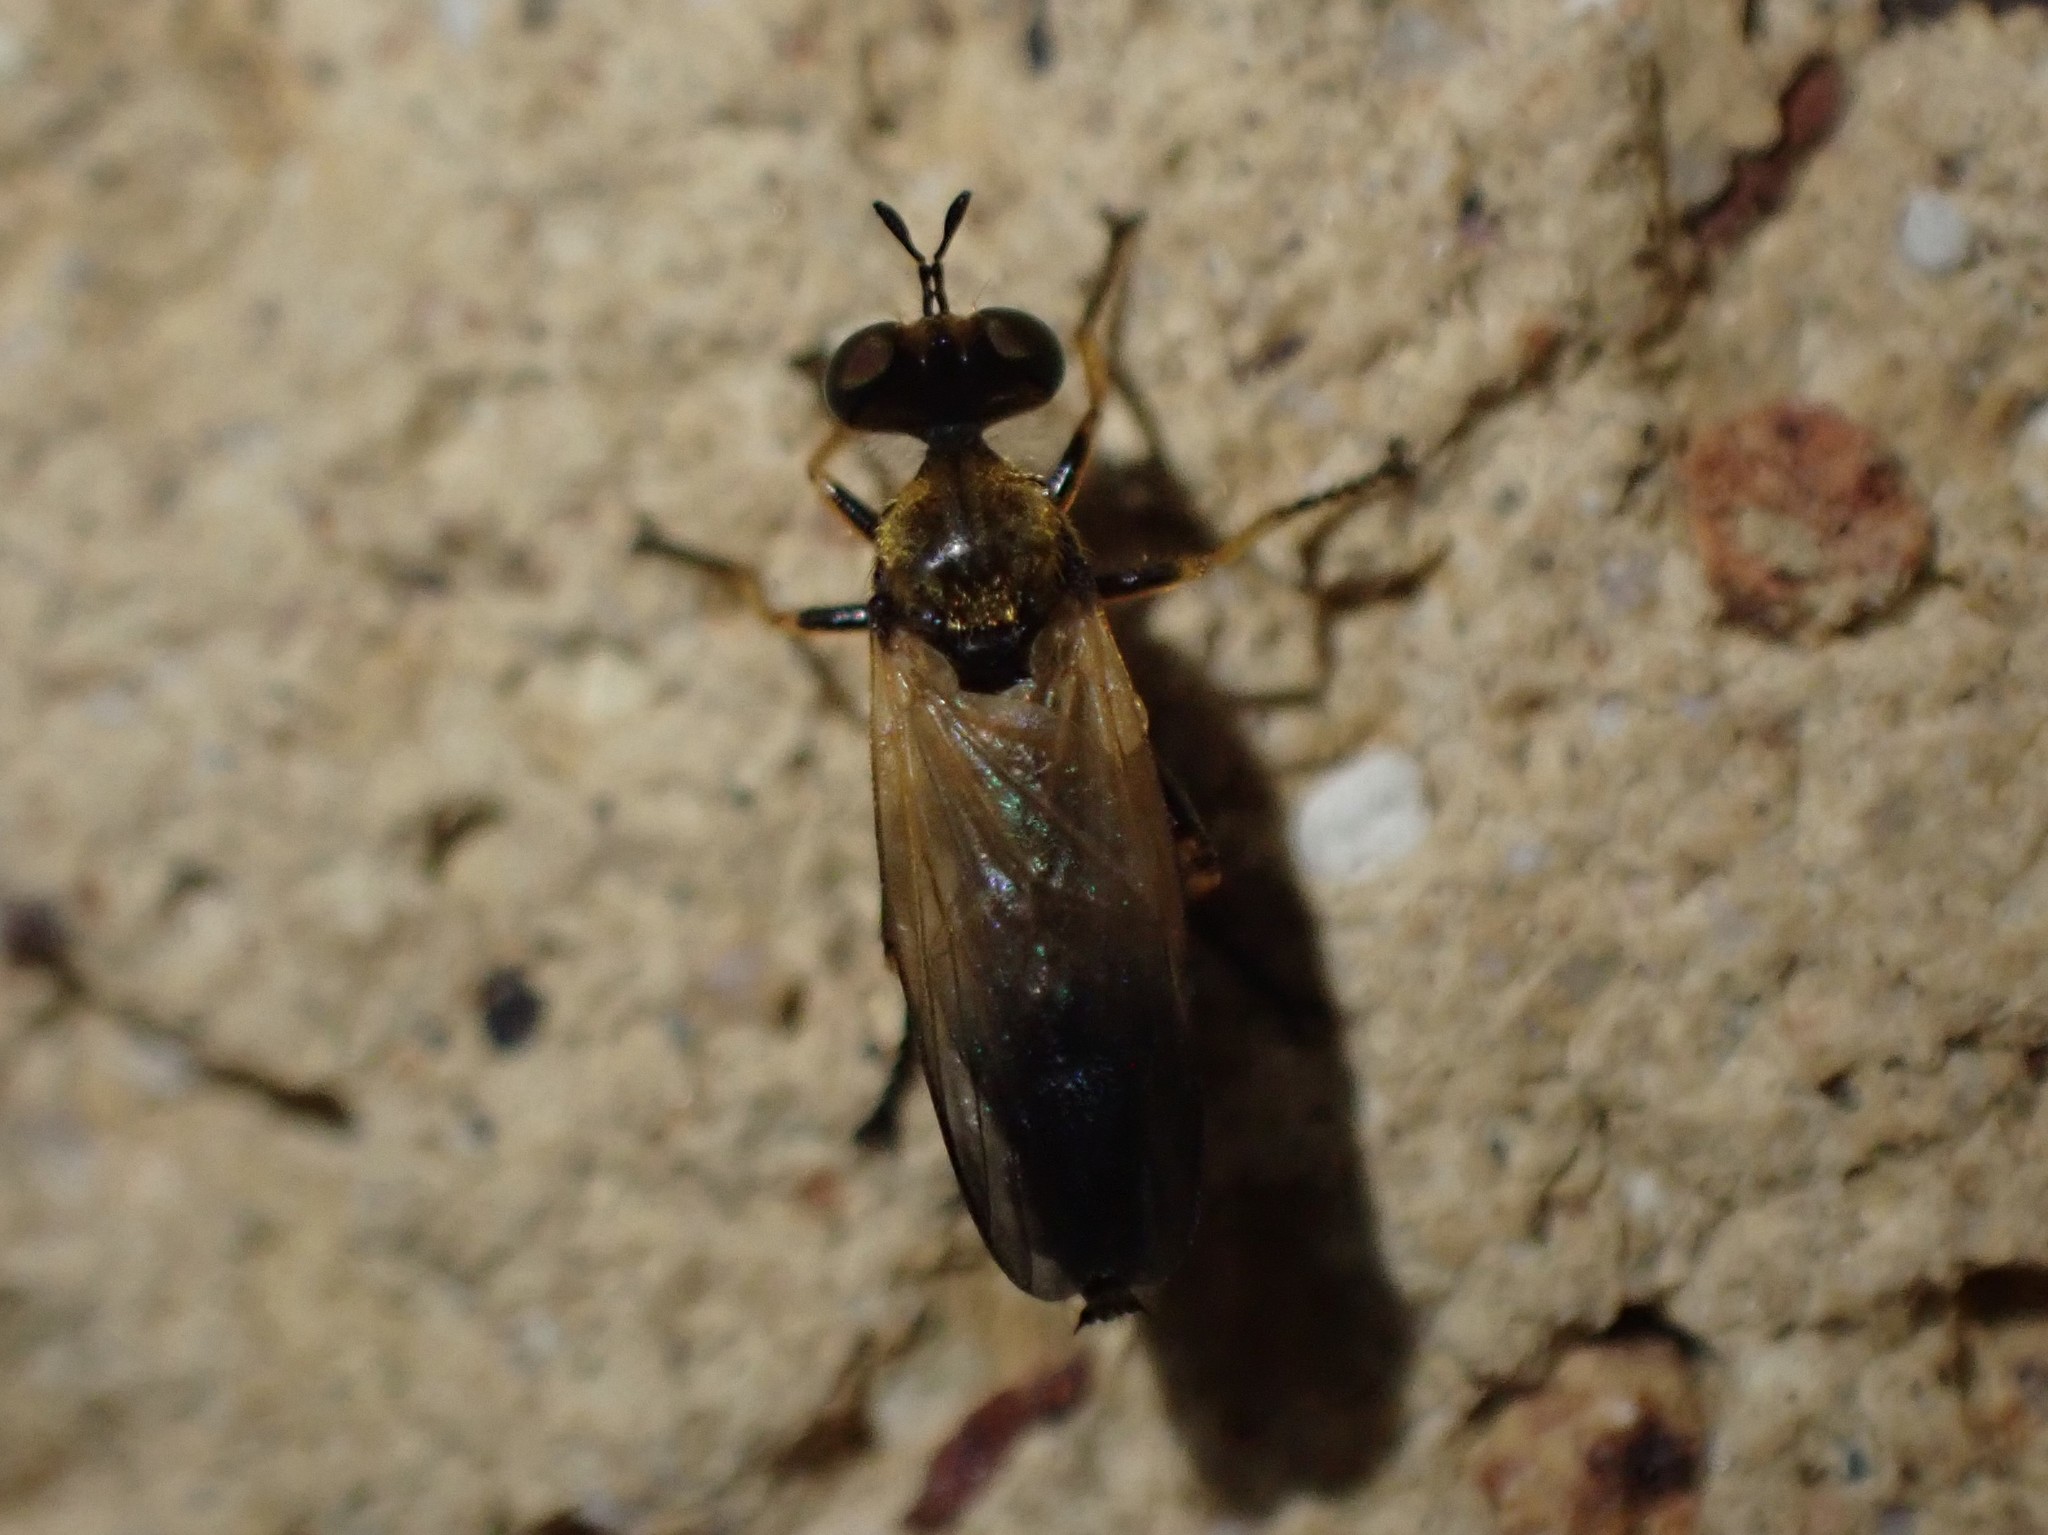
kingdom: Animalia
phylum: Arthropoda
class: Insecta
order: Diptera
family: Asilidae
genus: Eudioctria
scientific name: Eudioctria sackeni
